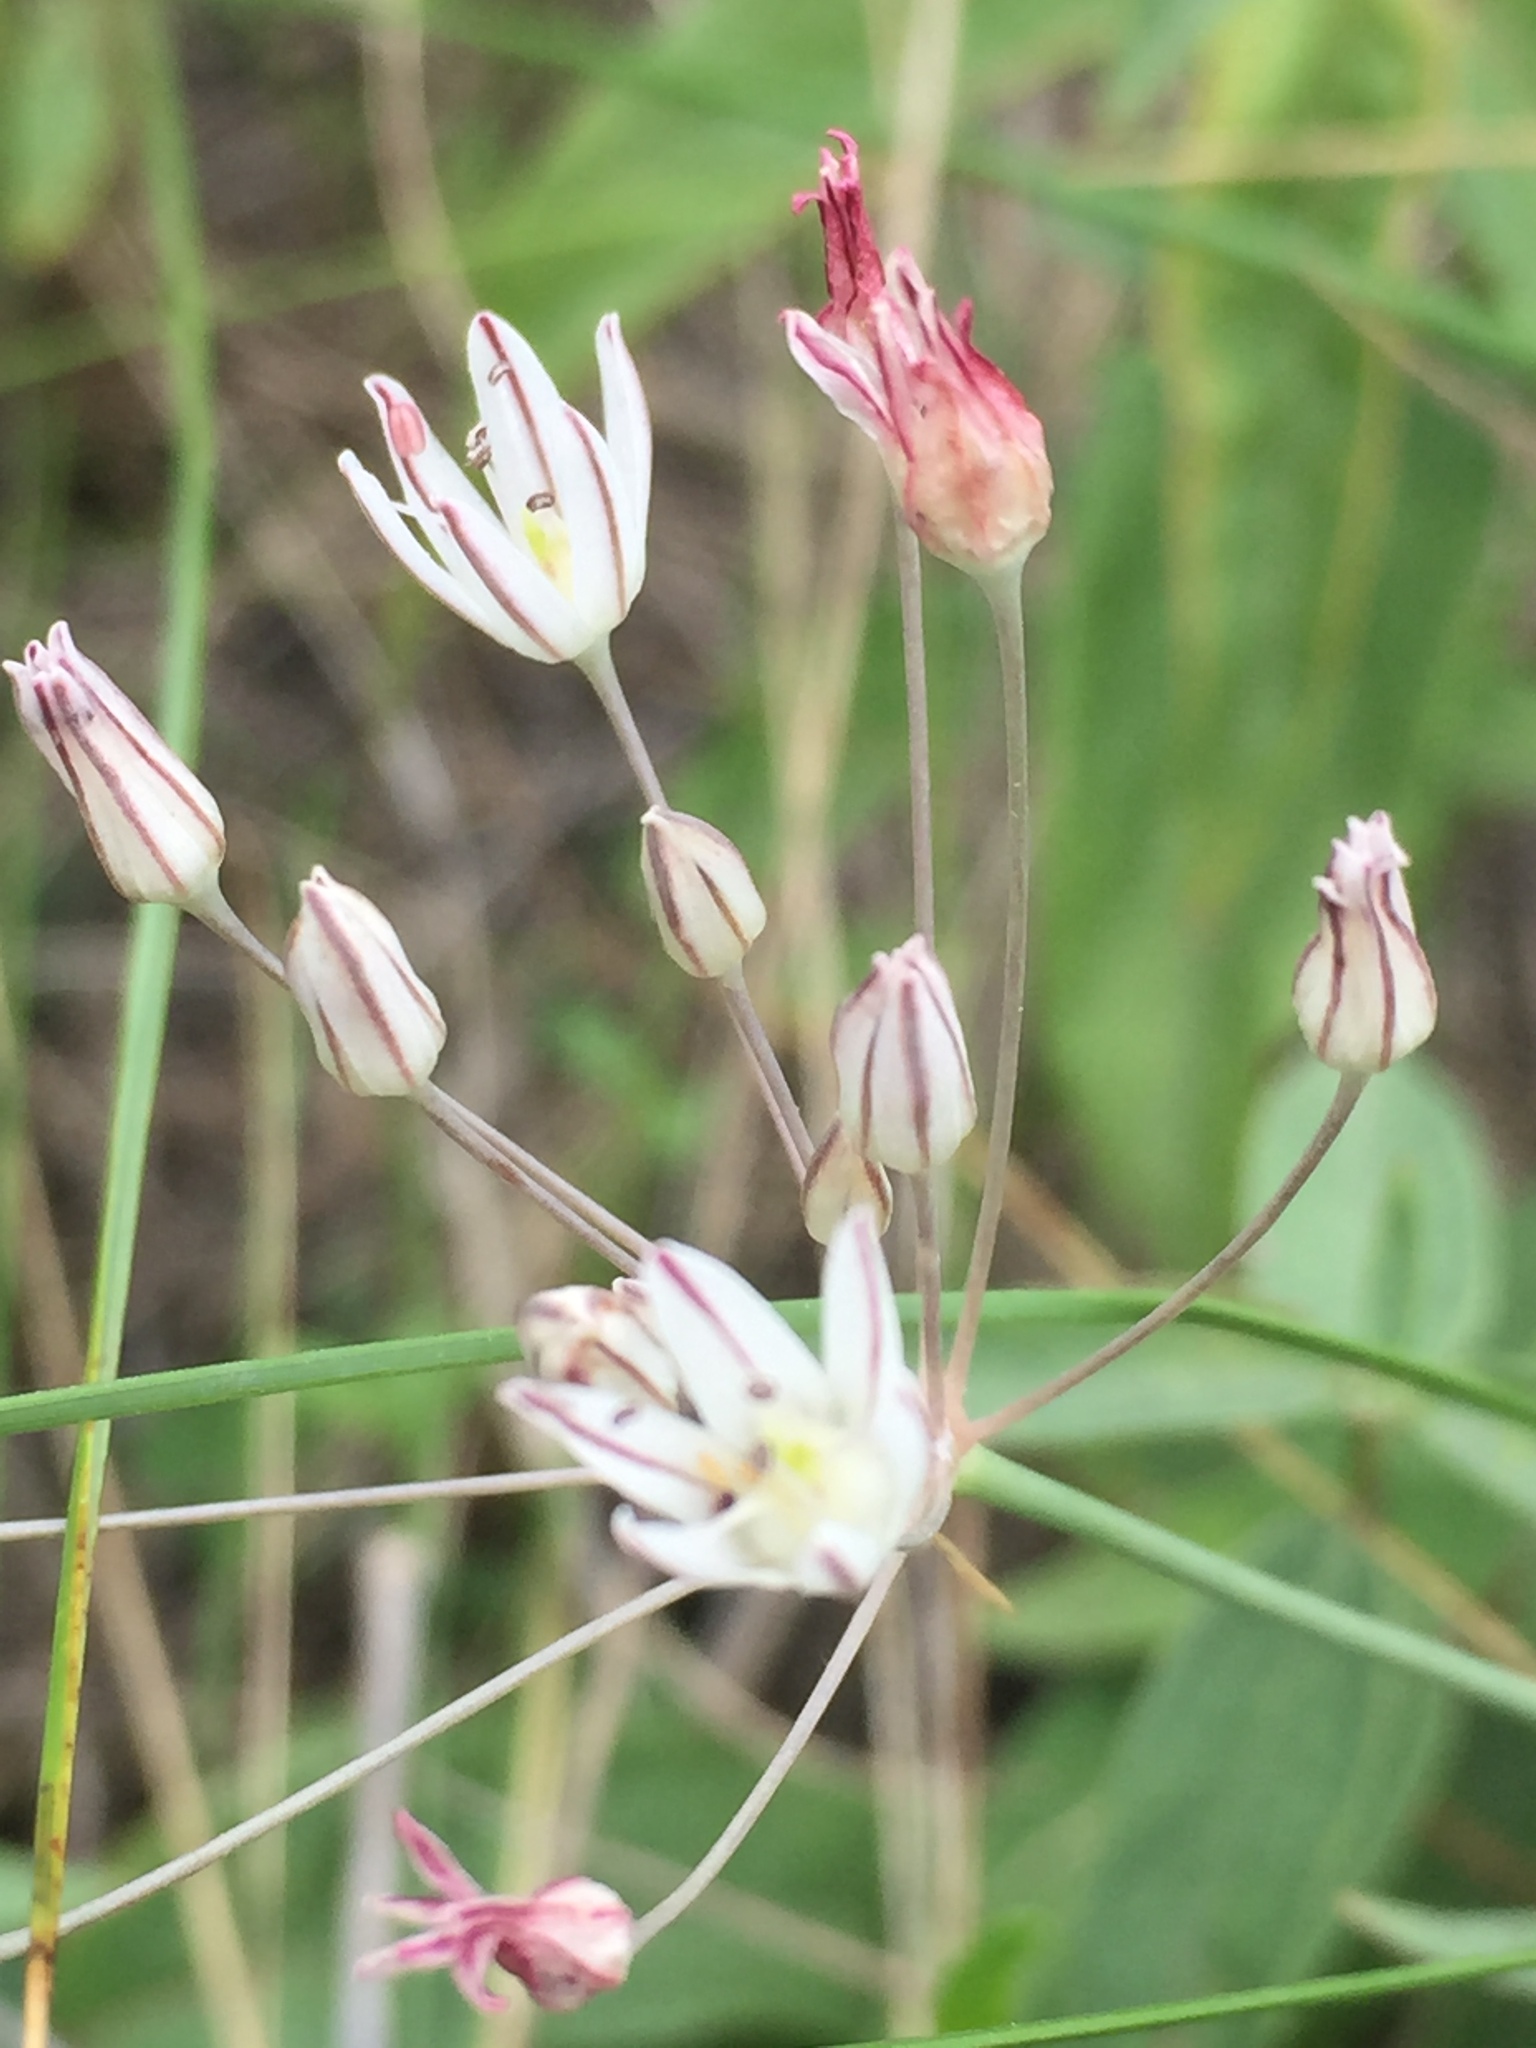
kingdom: Plantae
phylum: Tracheophyta
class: Liliopsida
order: Asparagales
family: Amaryllidaceae
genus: Allium
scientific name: Allium inaequale
